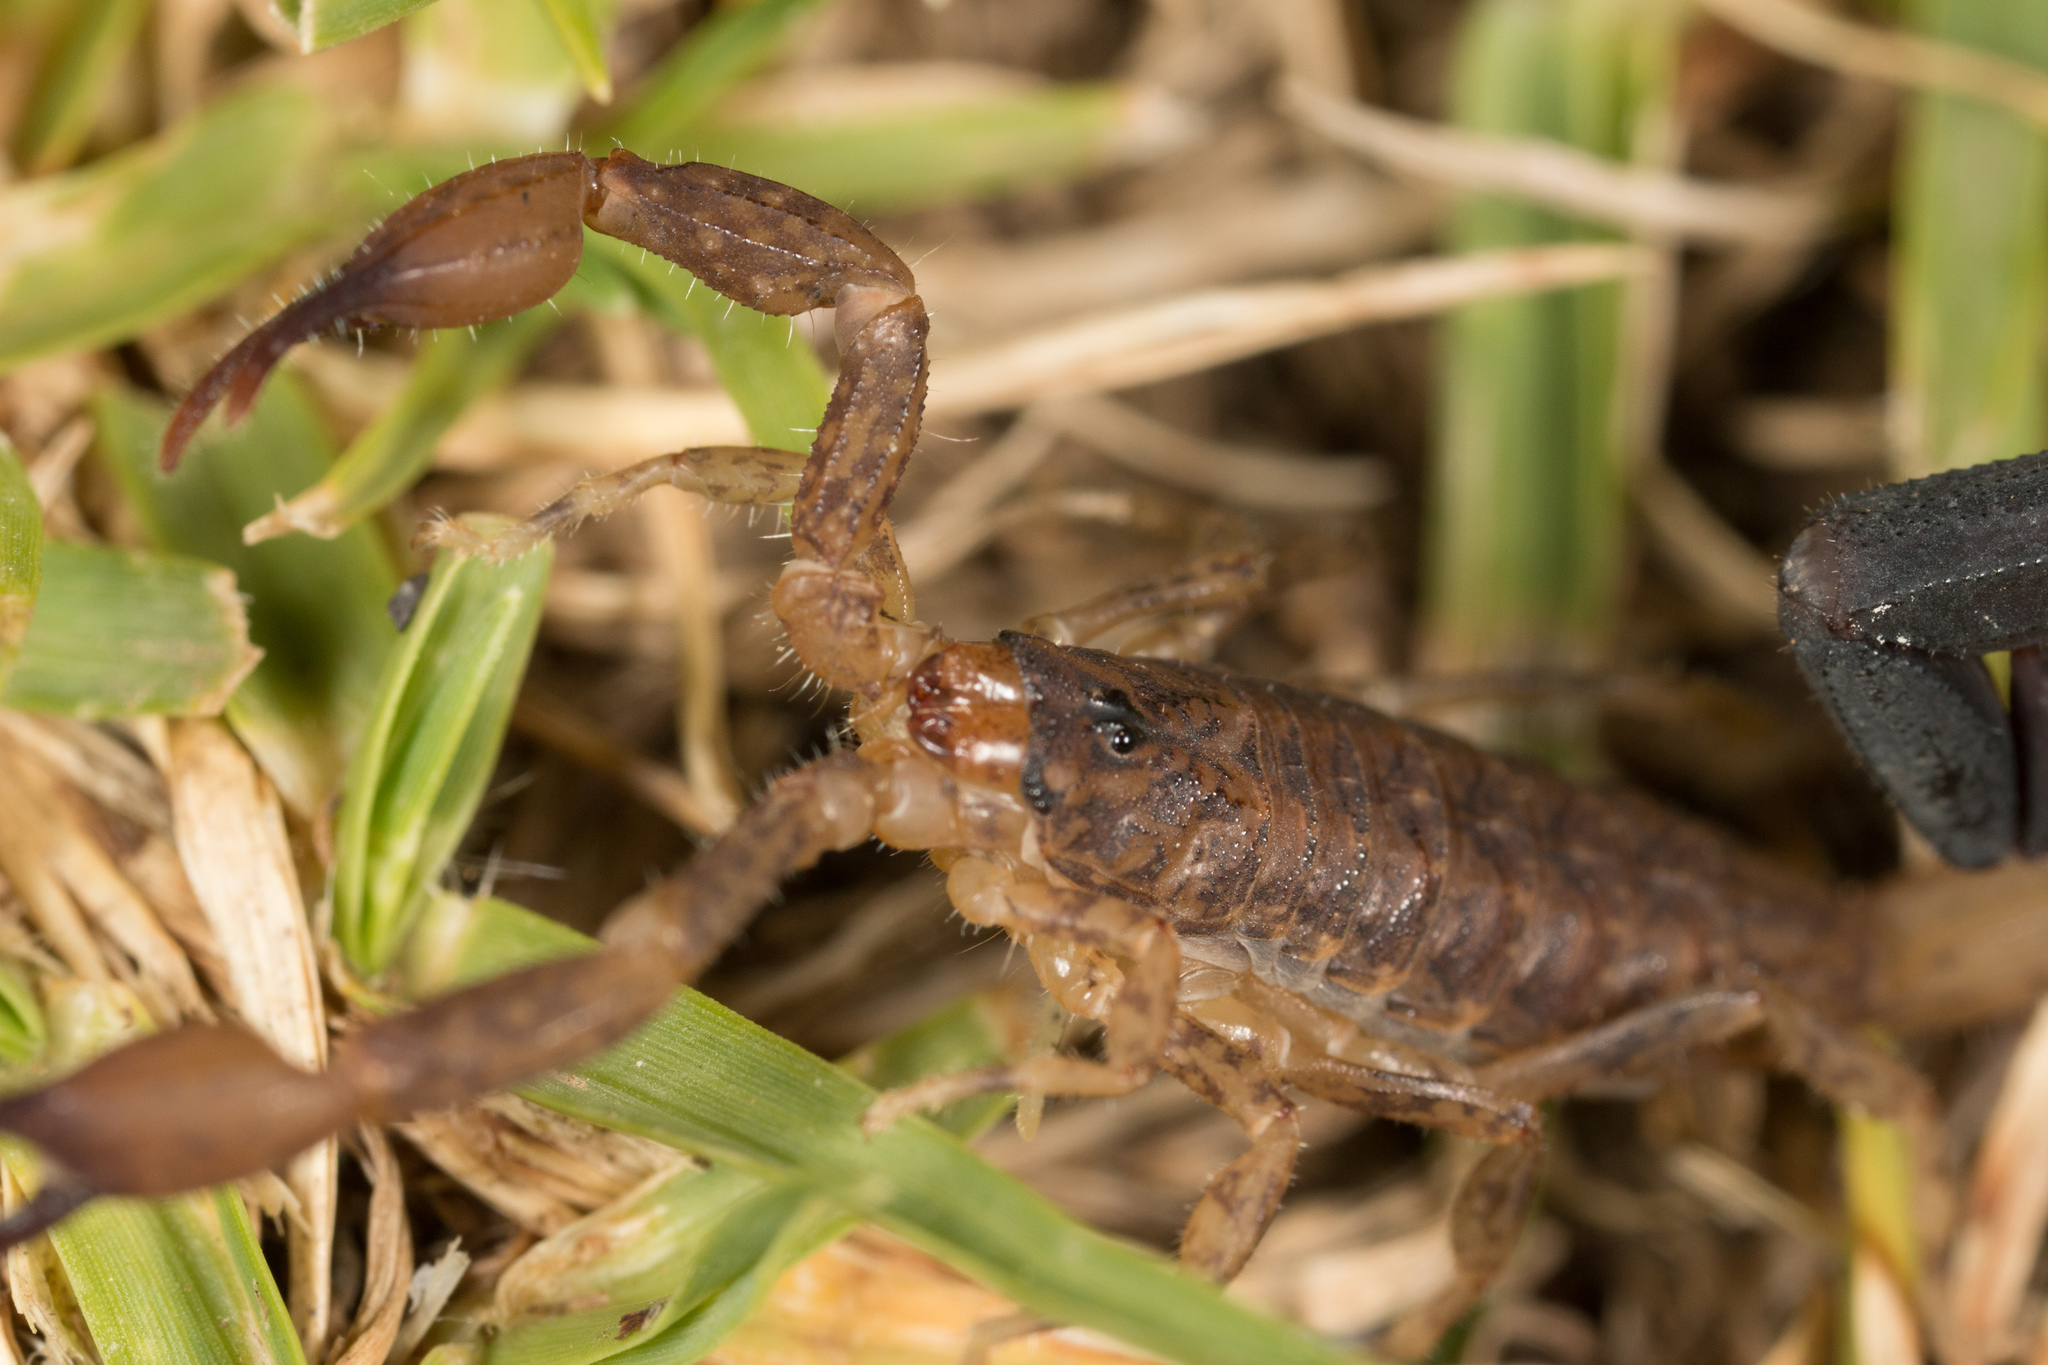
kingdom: Animalia
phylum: Arthropoda
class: Arachnida
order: Scorpiones
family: Buthidae
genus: Tityus
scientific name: Tityus elii
